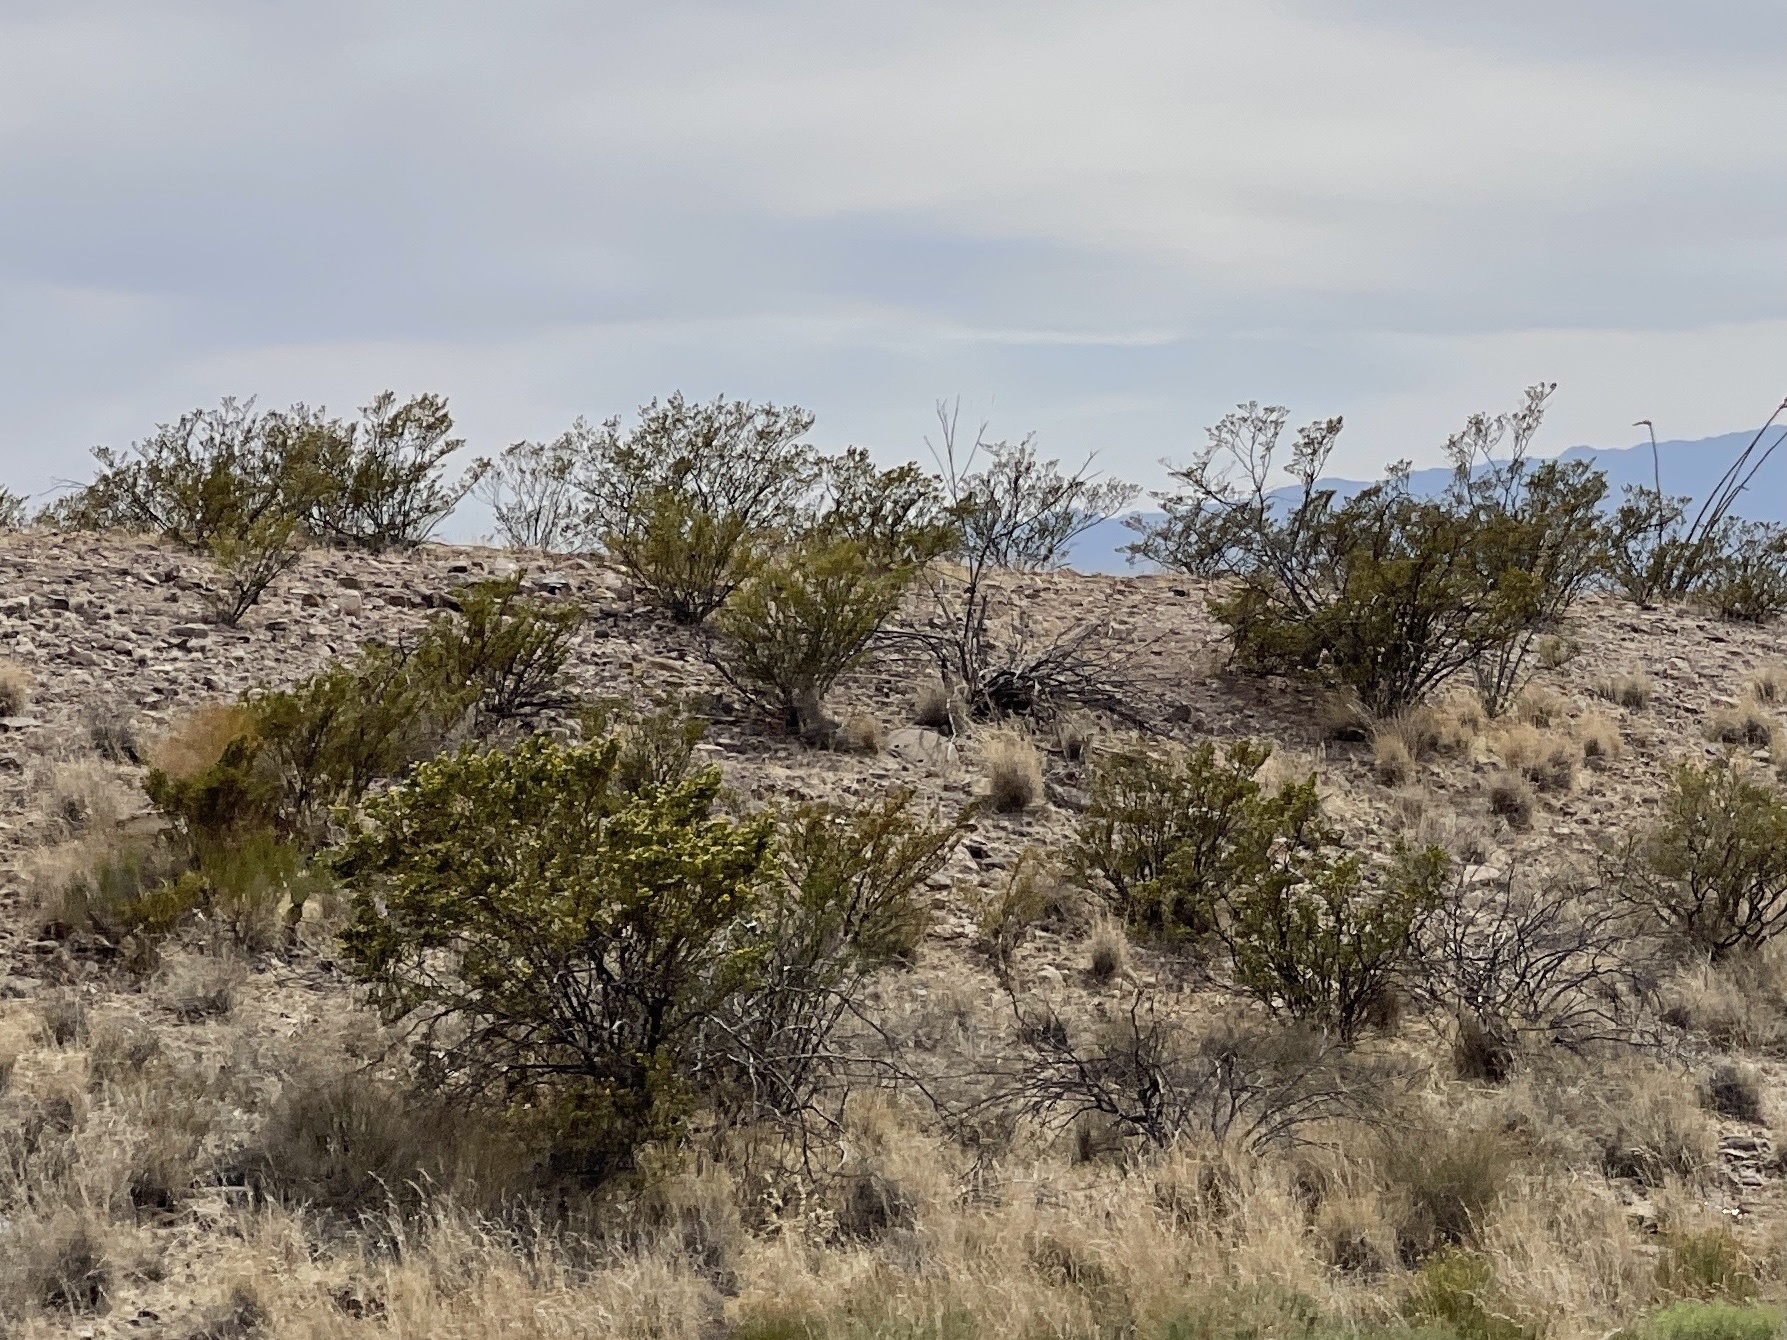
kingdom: Plantae
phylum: Tracheophyta
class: Magnoliopsida
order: Zygophyllales
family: Zygophyllaceae
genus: Larrea
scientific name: Larrea tridentata
